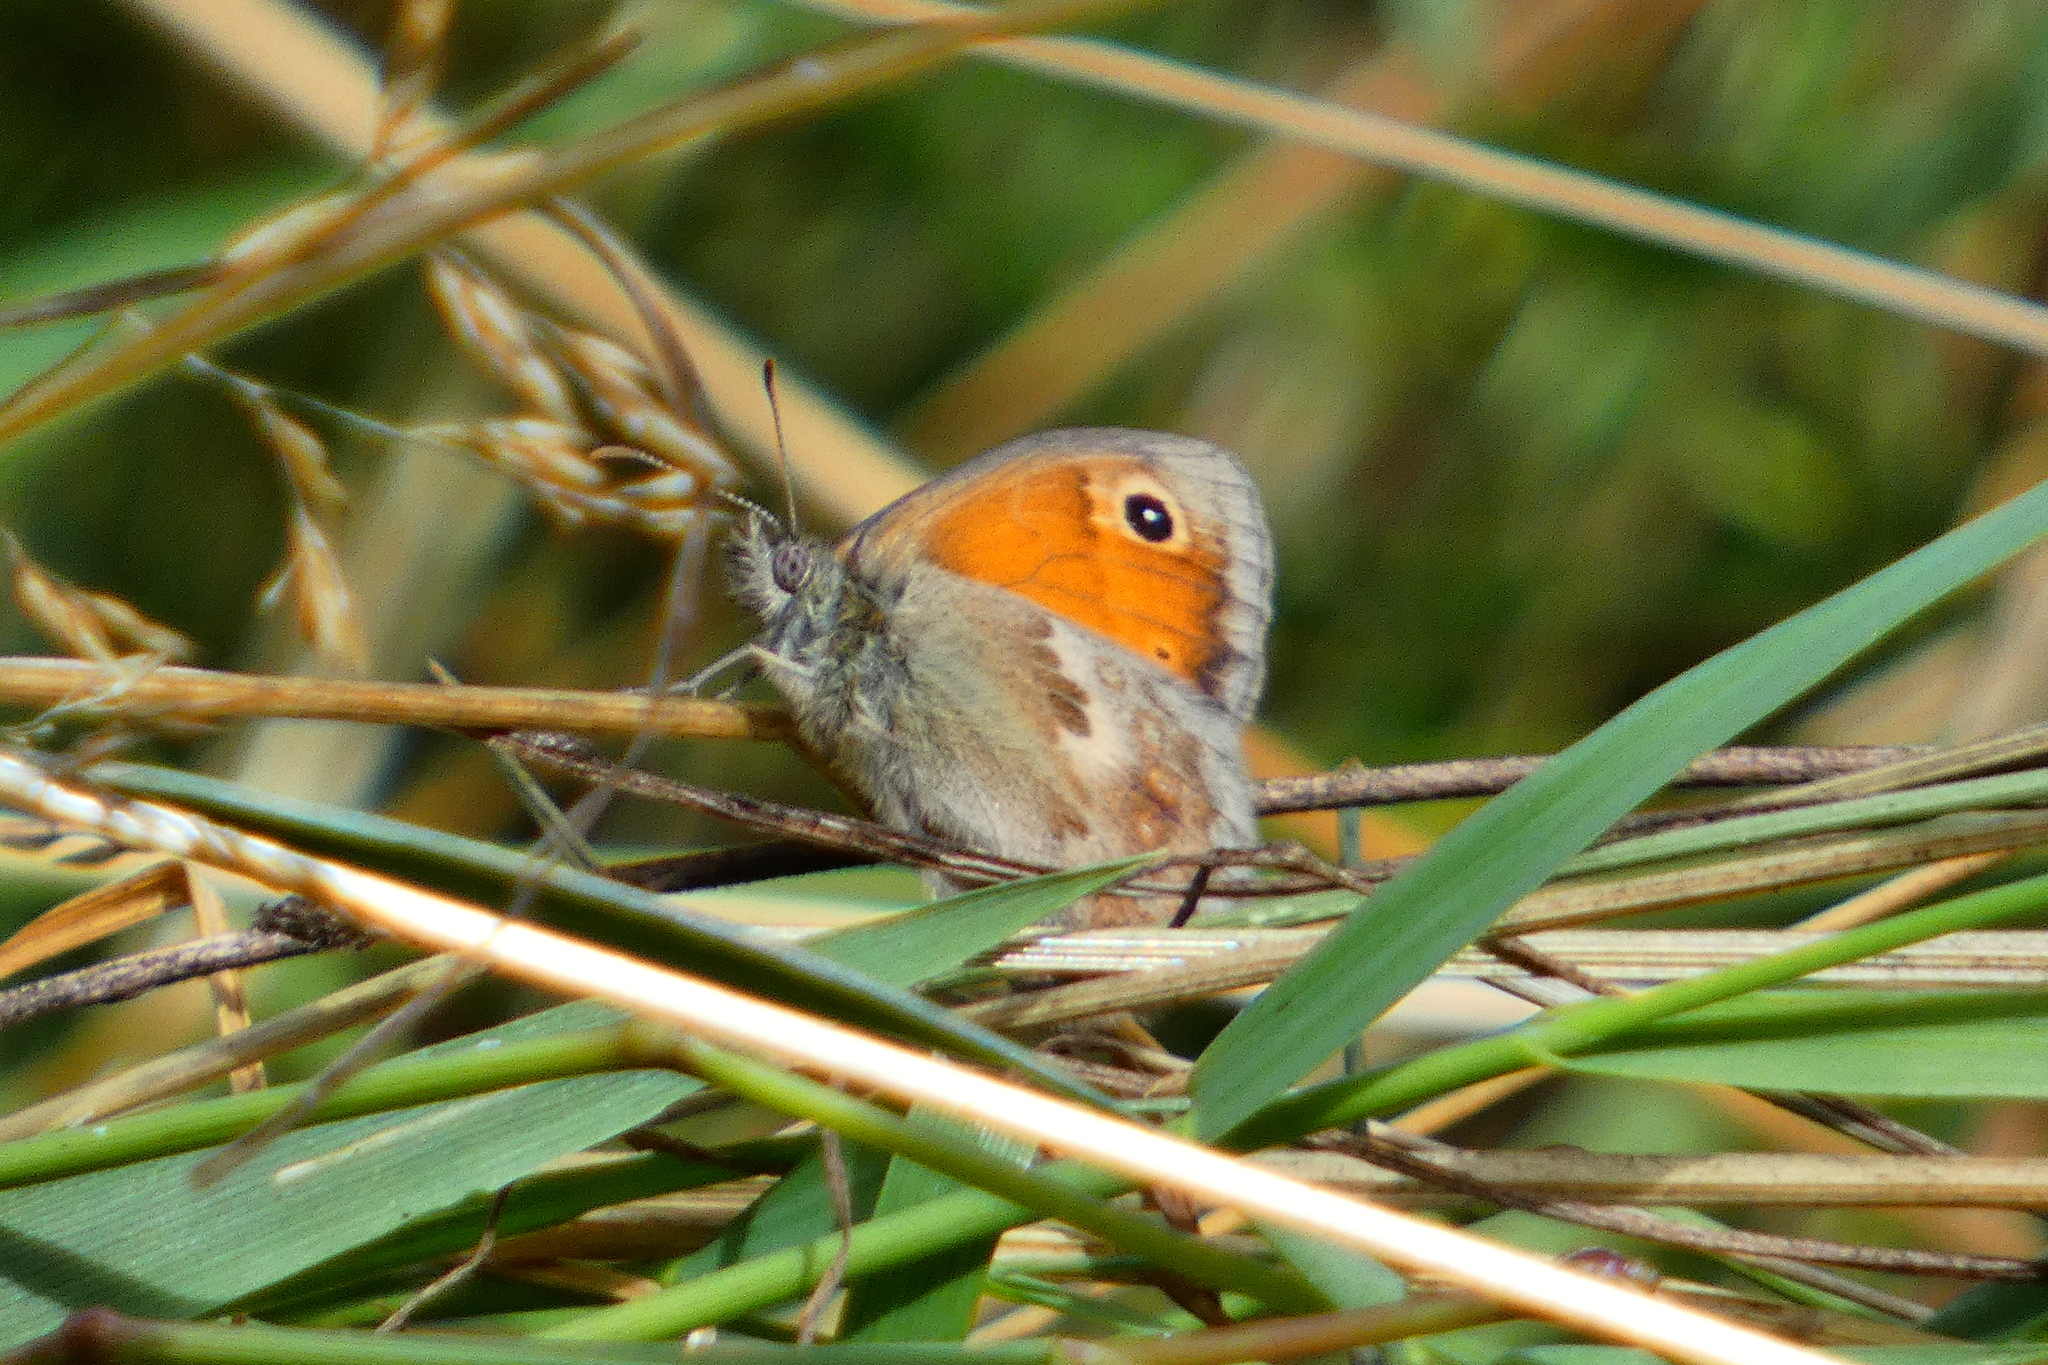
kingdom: Animalia
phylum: Arthropoda
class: Insecta
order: Lepidoptera
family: Nymphalidae
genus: Coenonympha
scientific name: Coenonympha pamphilus
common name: Small heath
